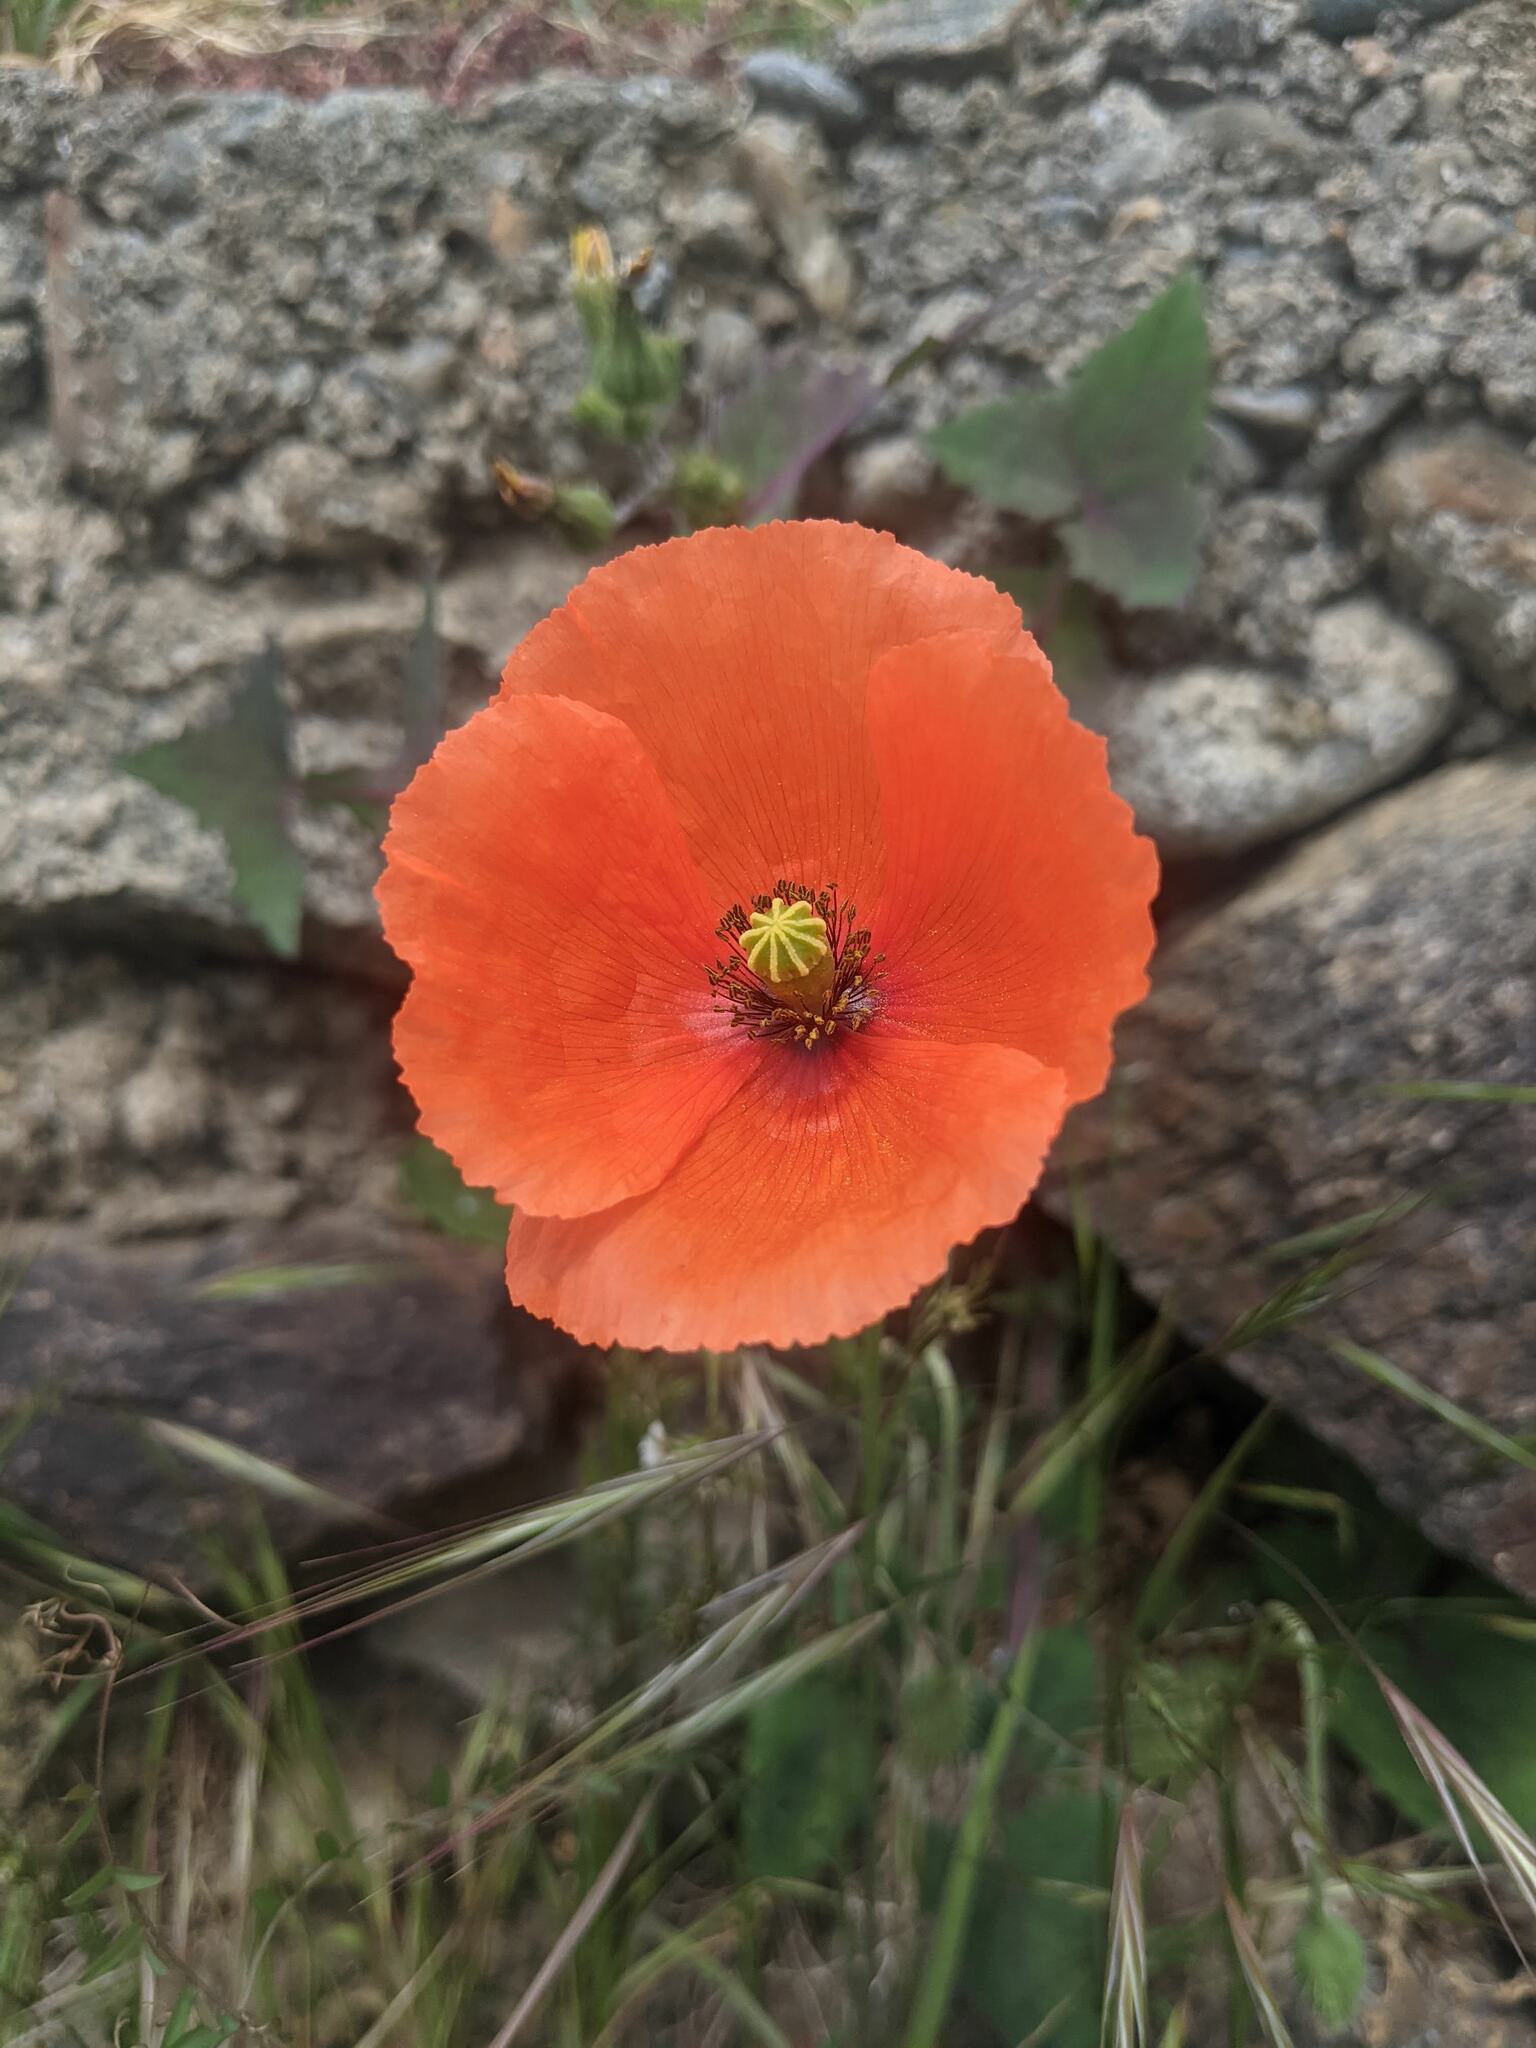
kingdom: Plantae
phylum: Tracheophyta
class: Magnoliopsida
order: Ranunculales
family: Papaveraceae
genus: Papaver
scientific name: Papaver dubium
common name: Long-headed poppy
